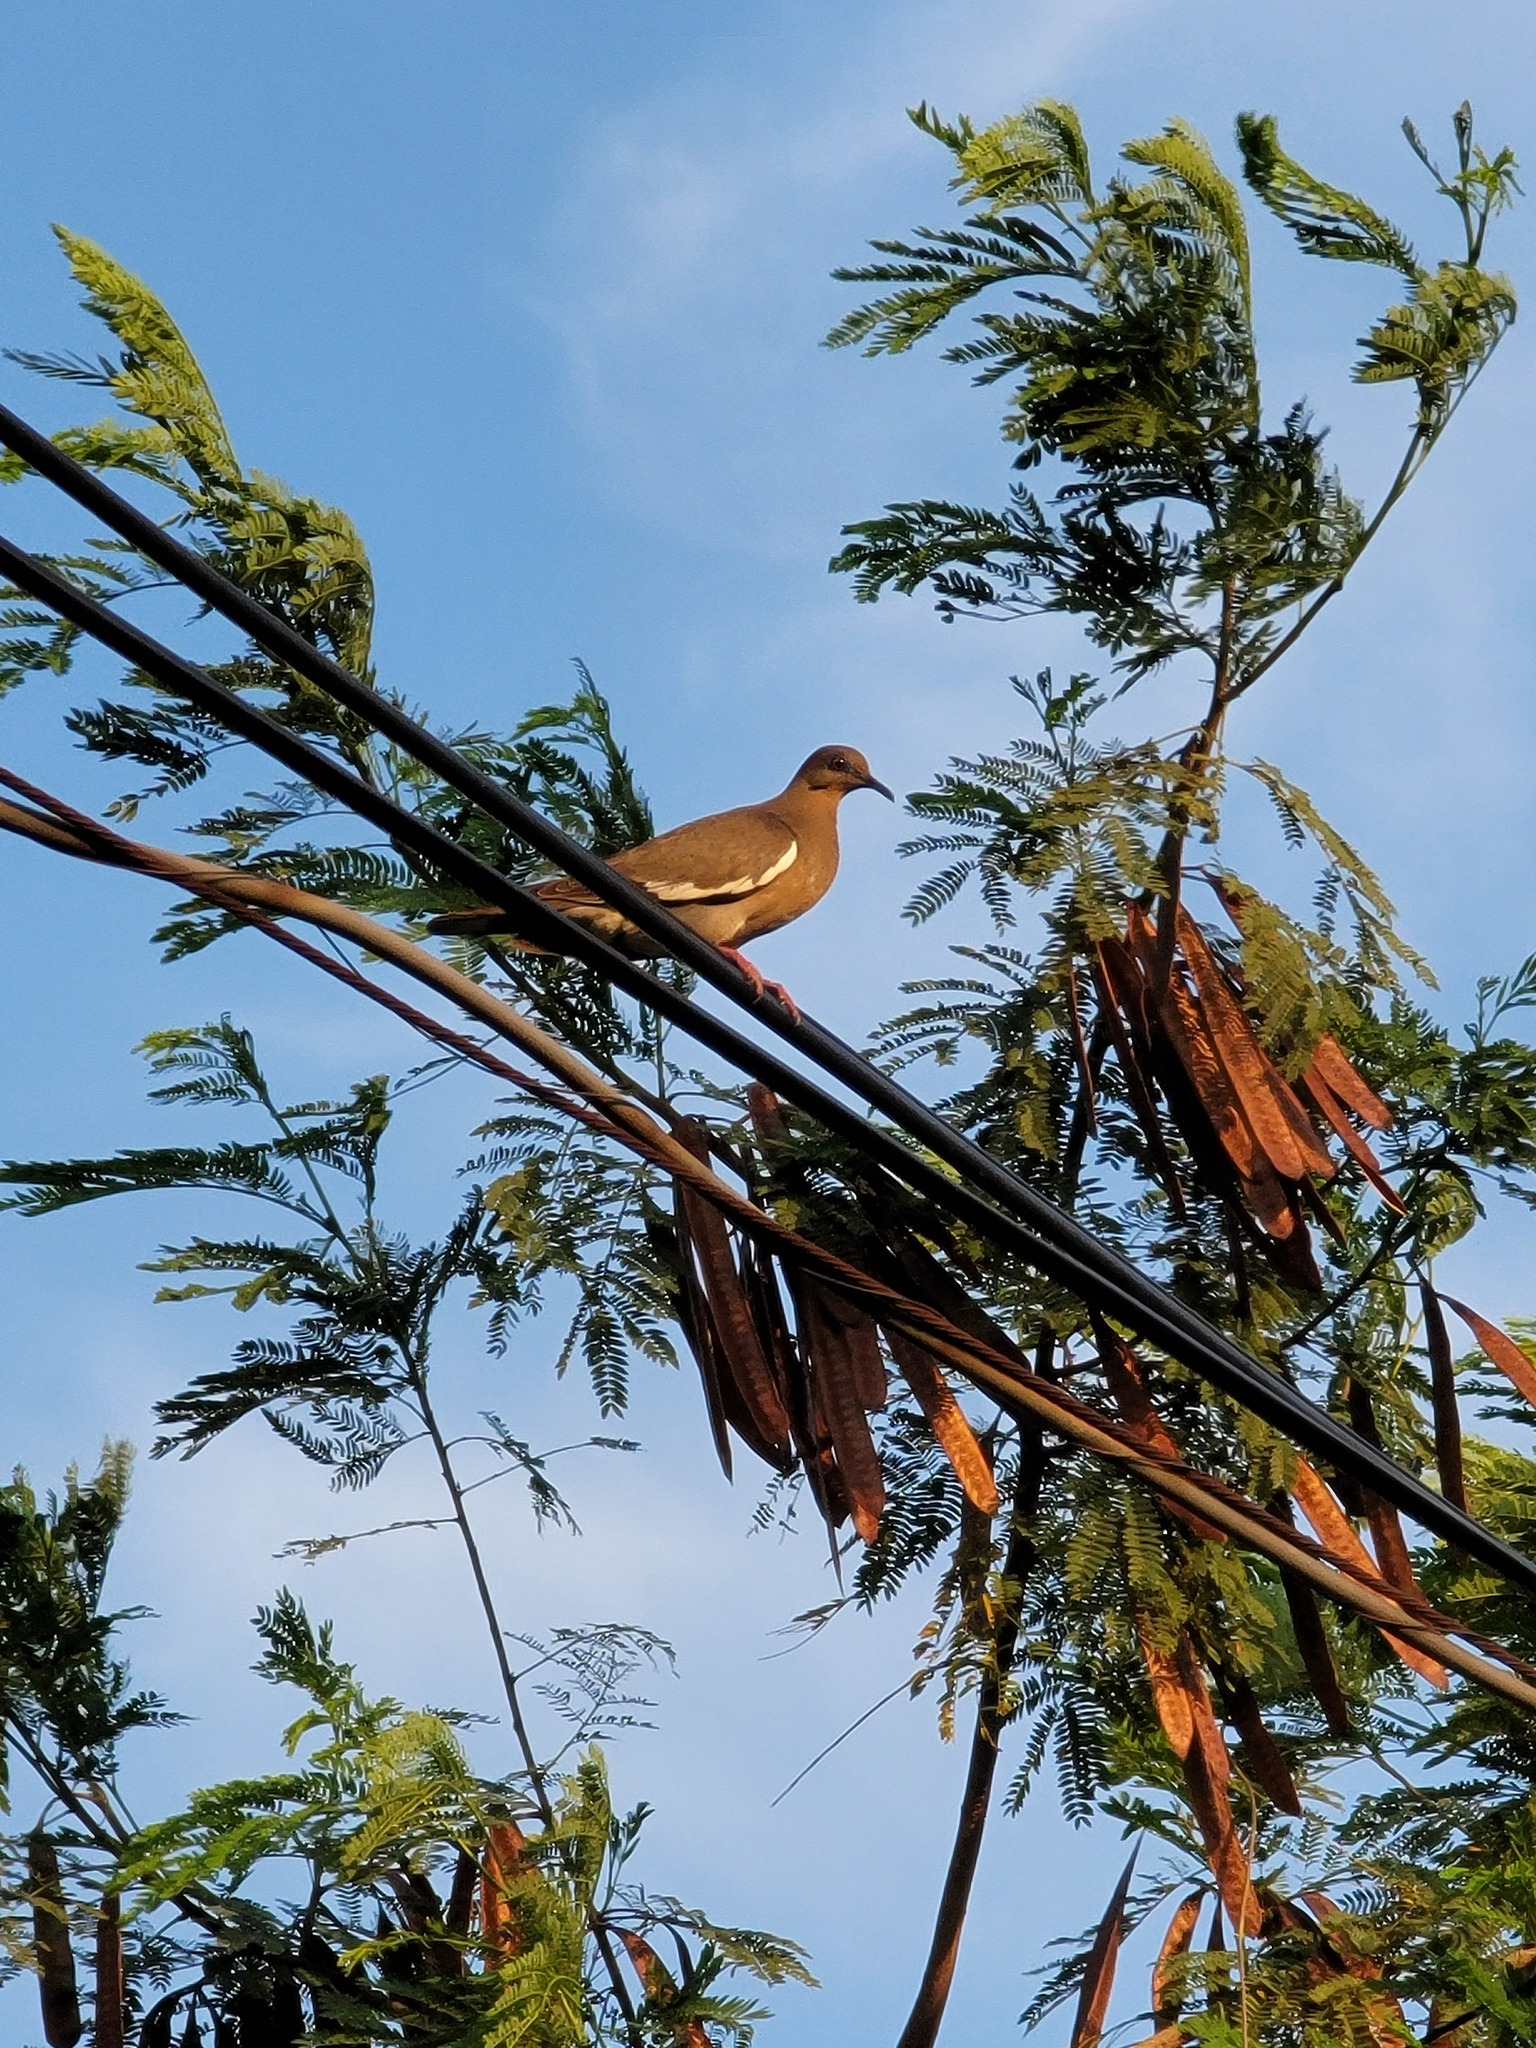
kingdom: Animalia
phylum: Chordata
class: Aves
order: Columbiformes
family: Columbidae
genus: Zenaida
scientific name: Zenaida asiatica
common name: White-winged dove
